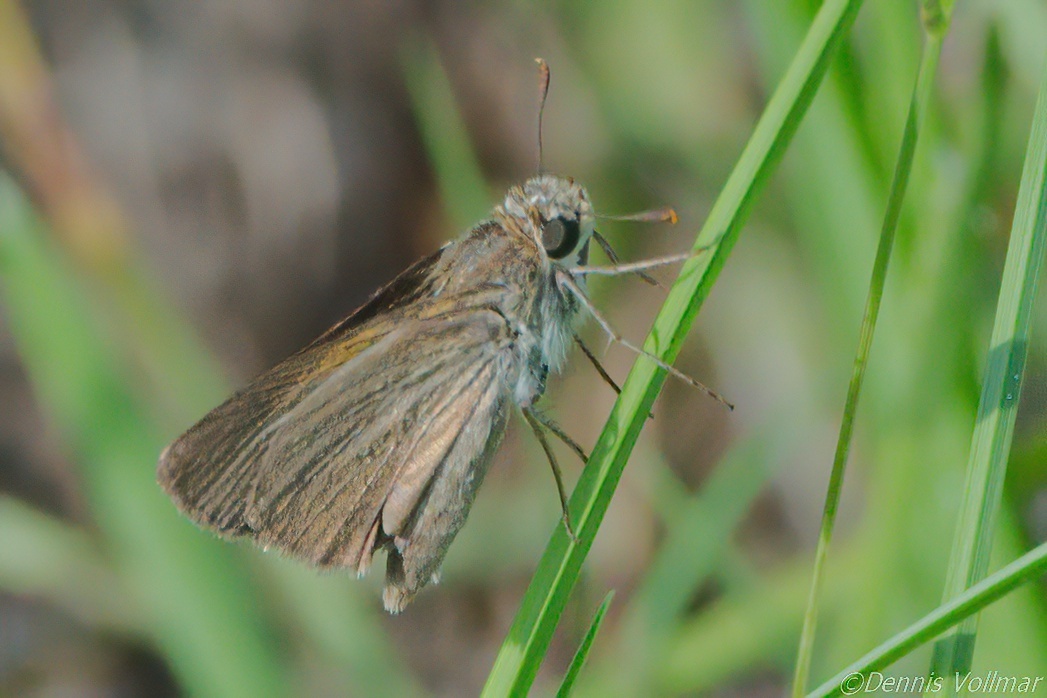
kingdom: Animalia
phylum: Arthropoda
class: Insecta
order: Lepidoptera
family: Hesperiidae
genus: Polites
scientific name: Polites themistocles
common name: Tawny-edged skipper
